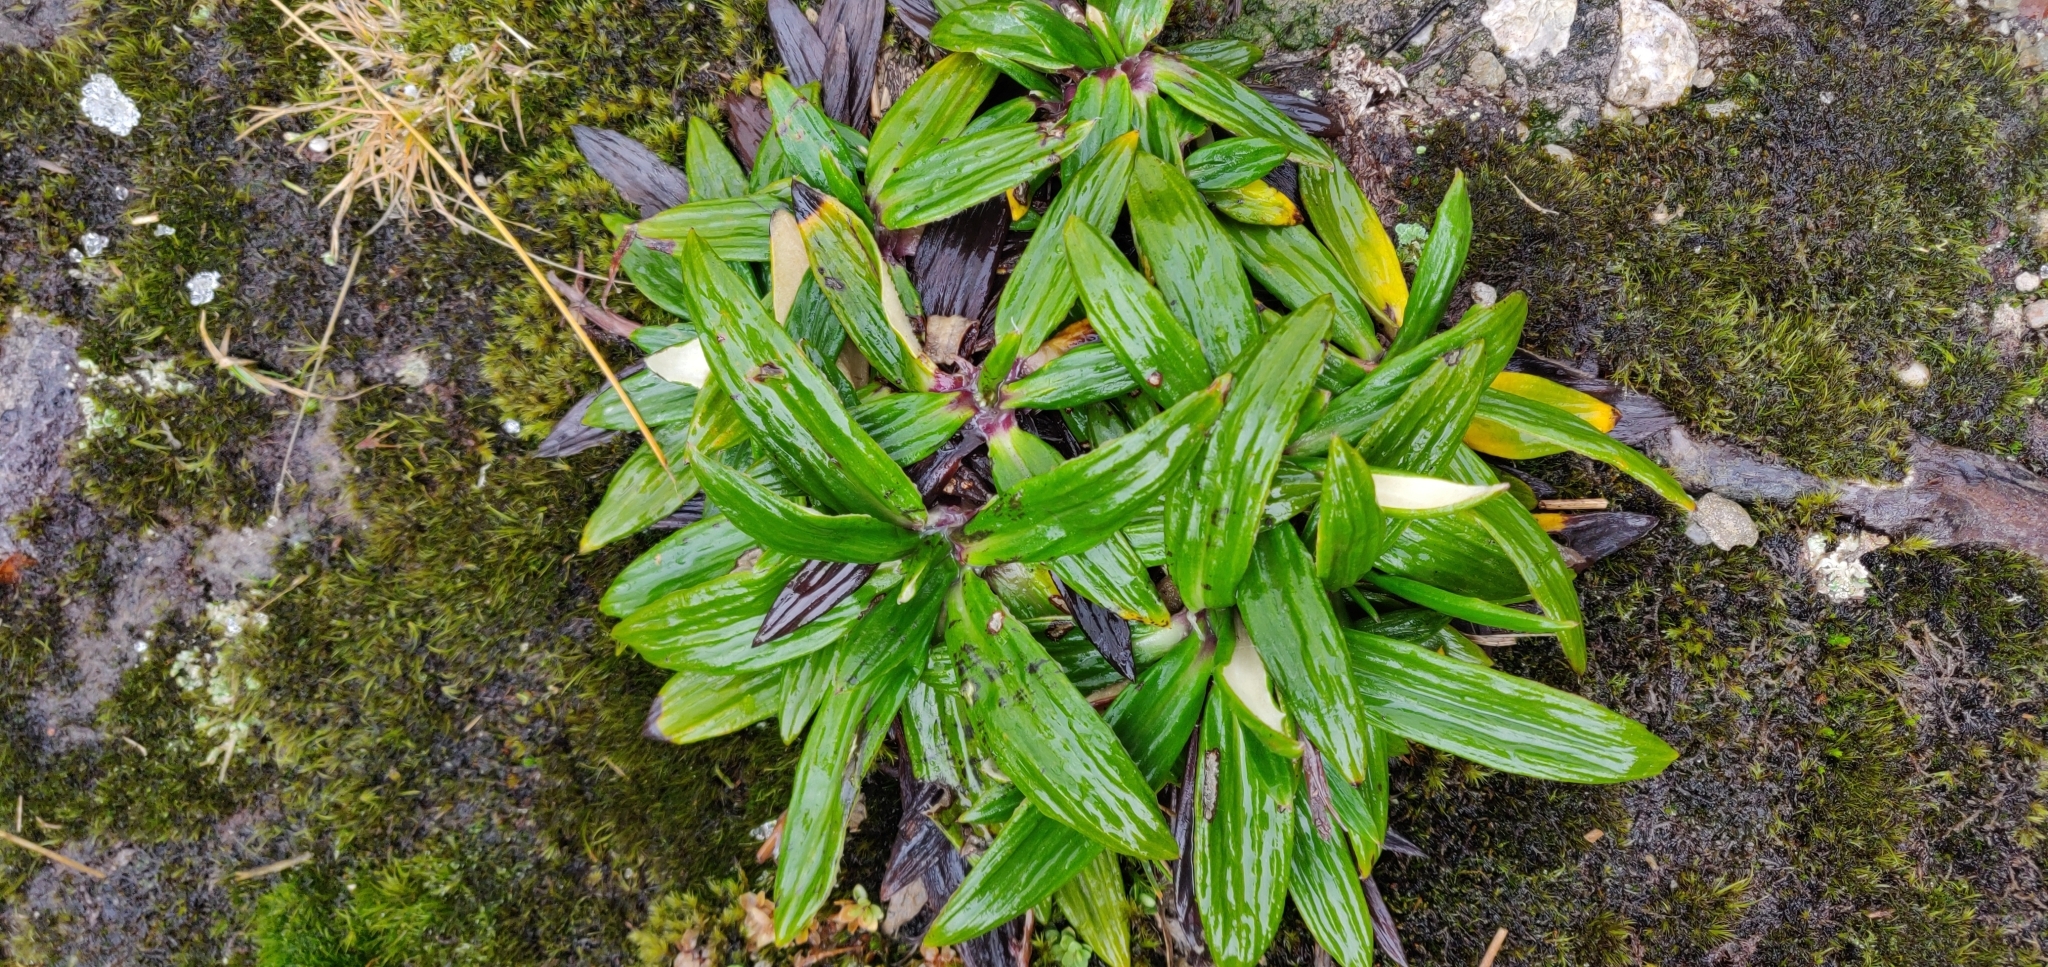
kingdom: Plantae
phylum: Tracheophyta
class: Magnoliopsida
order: Asterales
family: Asteraceae
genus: Celmisia
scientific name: Celmisia spectabilis
